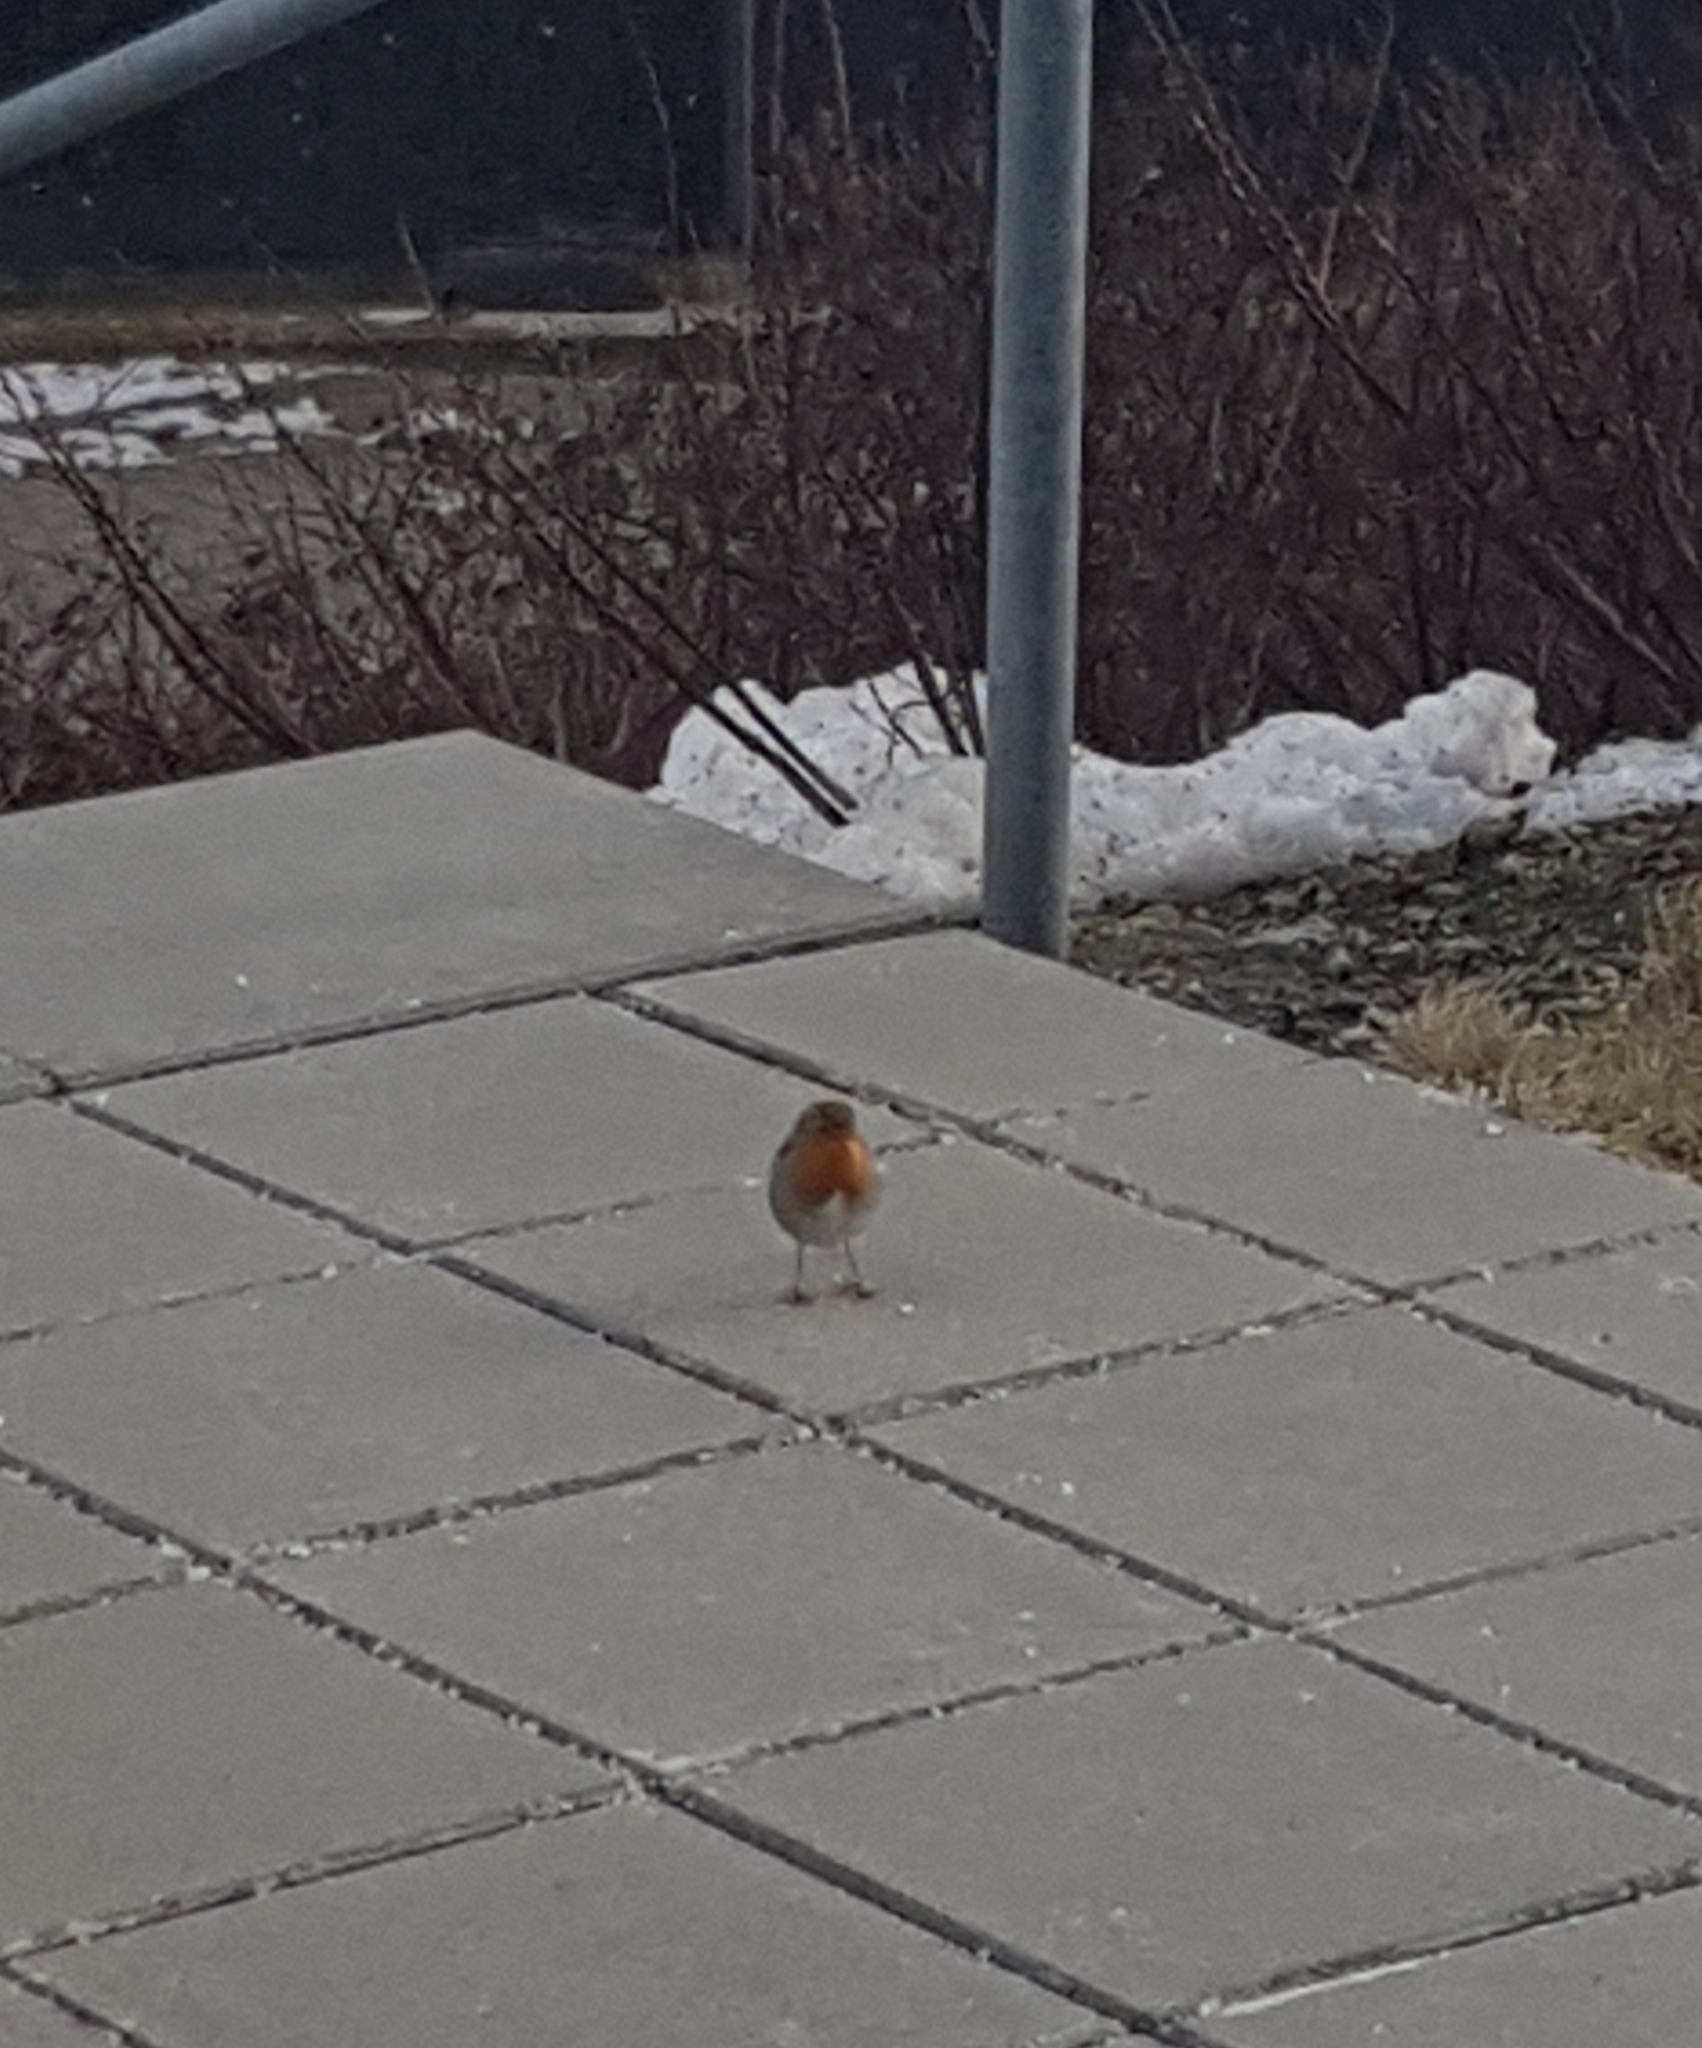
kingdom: Animalia
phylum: Chordata
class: Aves
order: Passeriformes
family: Muscicapidae
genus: Erithacus
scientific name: Erithacus rubecula
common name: European robin
